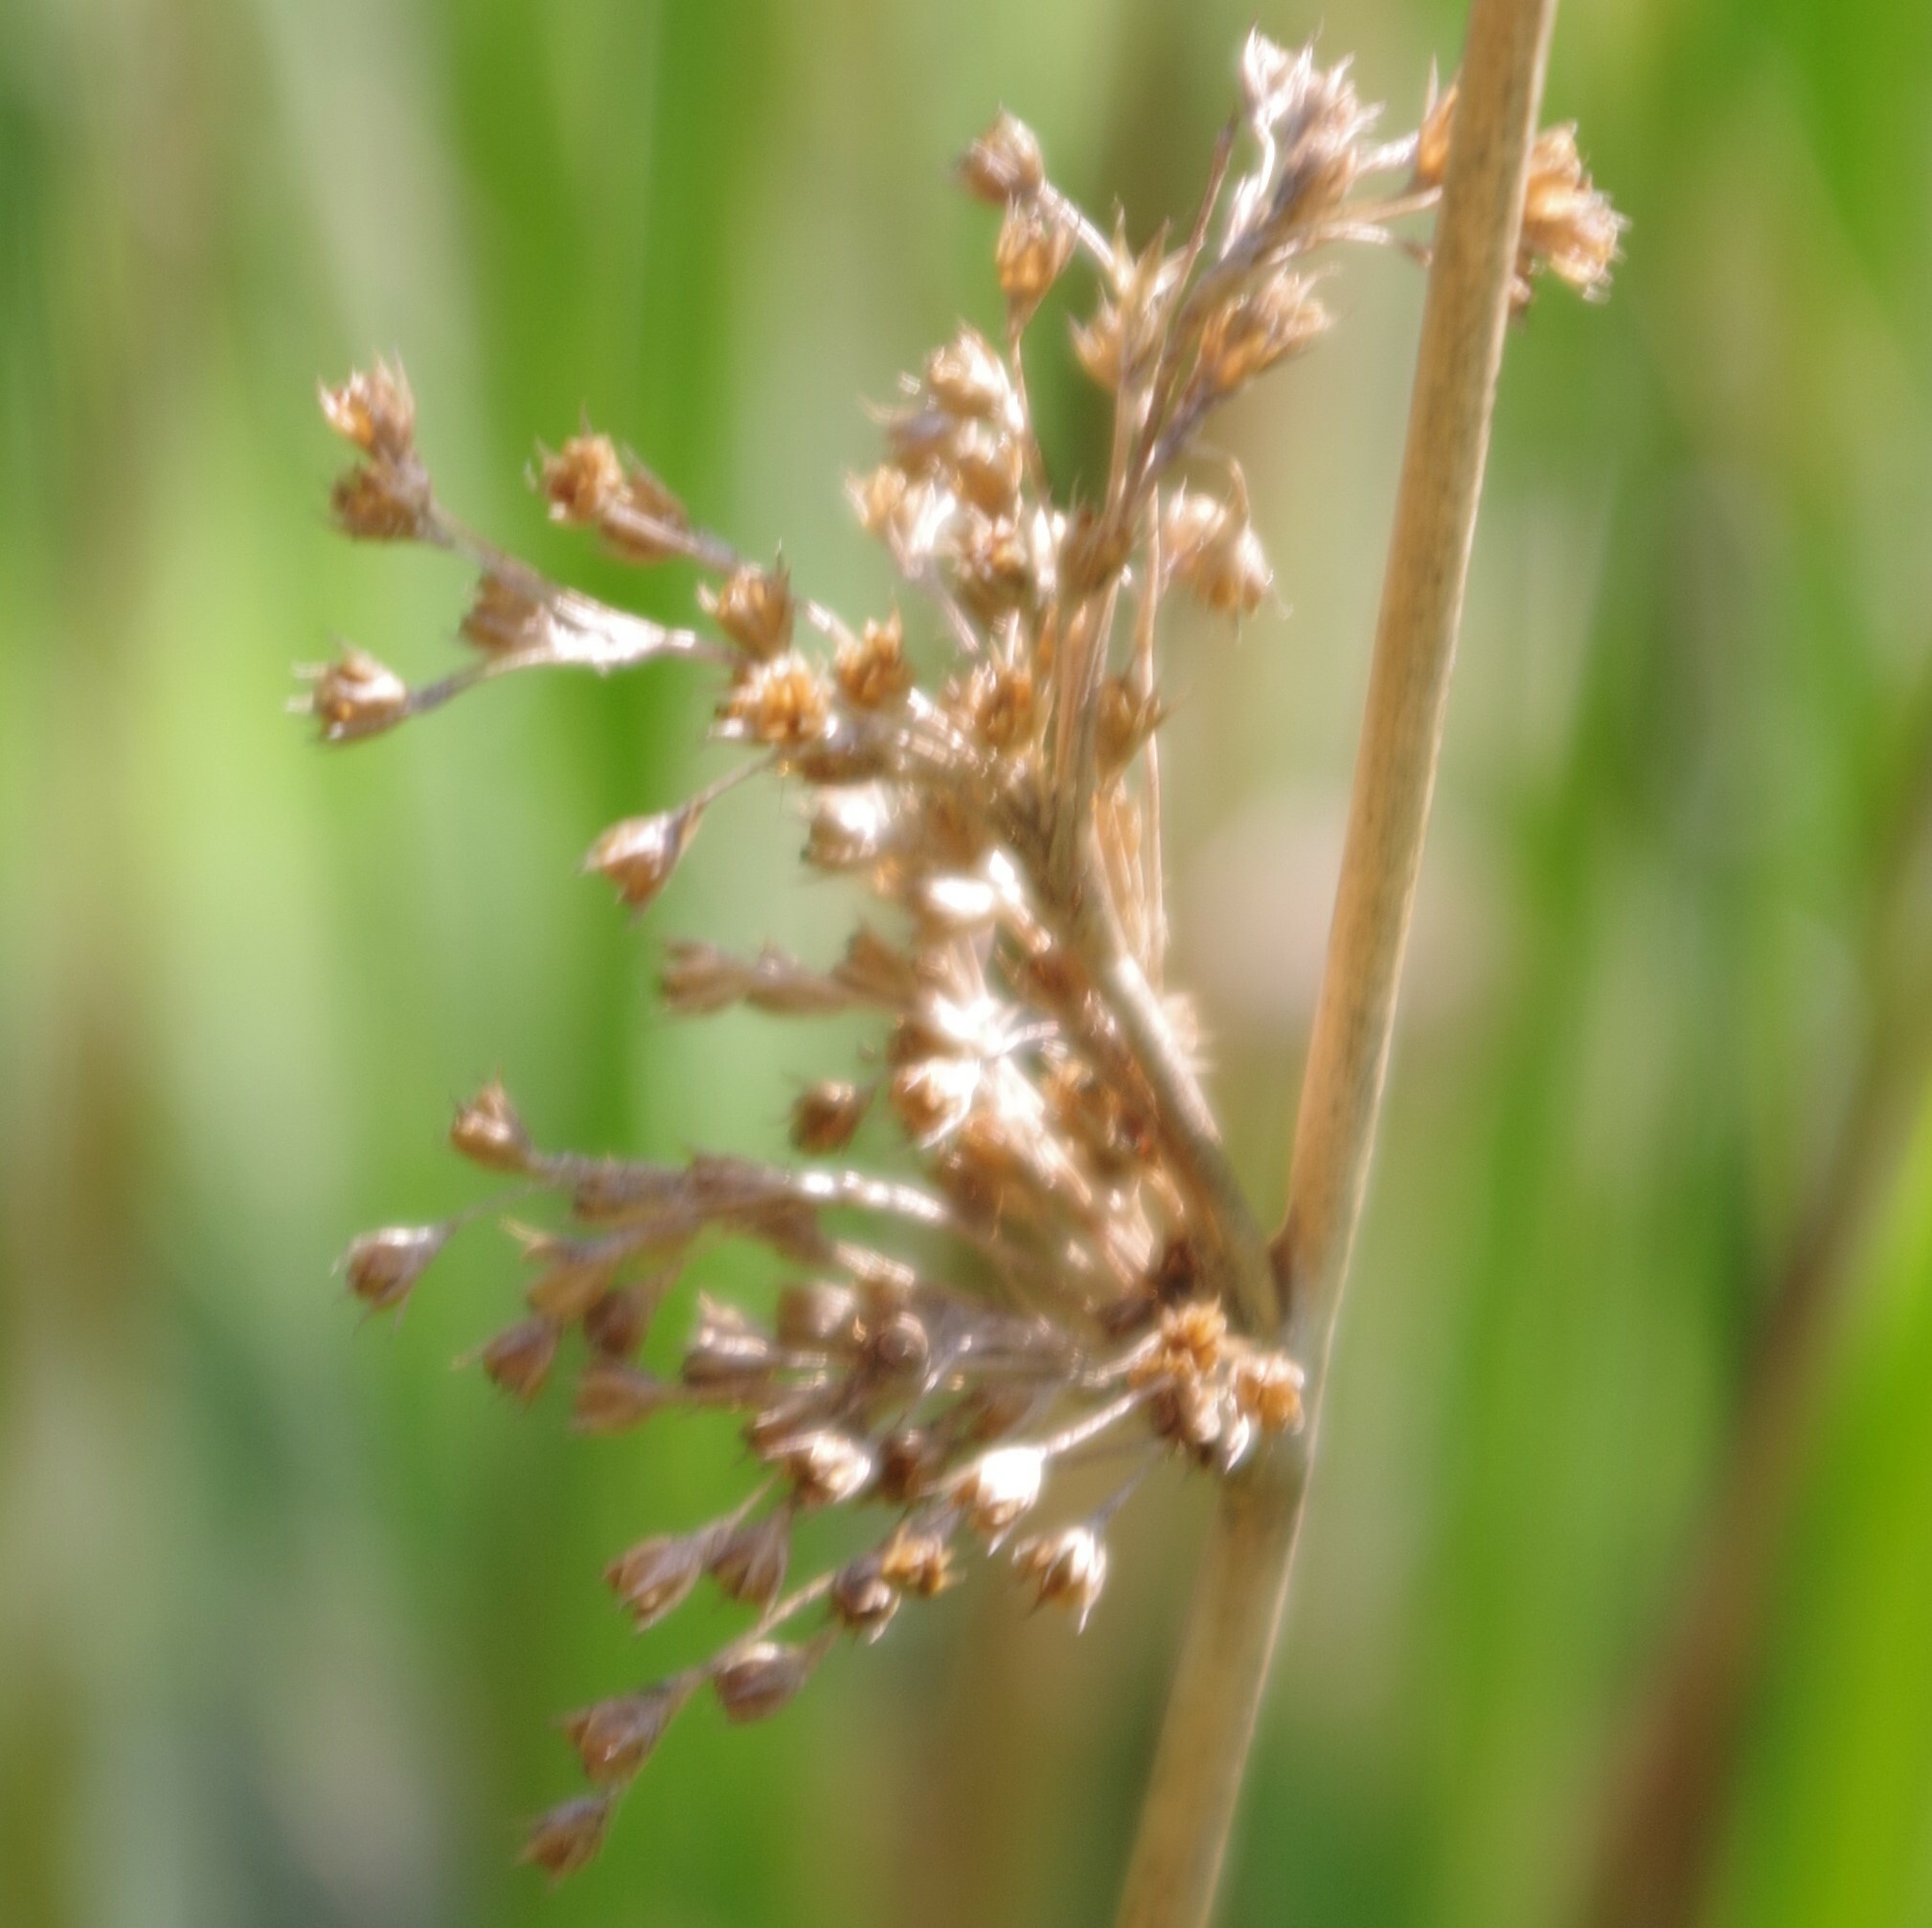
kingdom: Plantae
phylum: Tracheophyta
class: Liliopsida
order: Poales
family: Juncaceae
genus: Juncus
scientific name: Juncus effusus
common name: Soft rush
